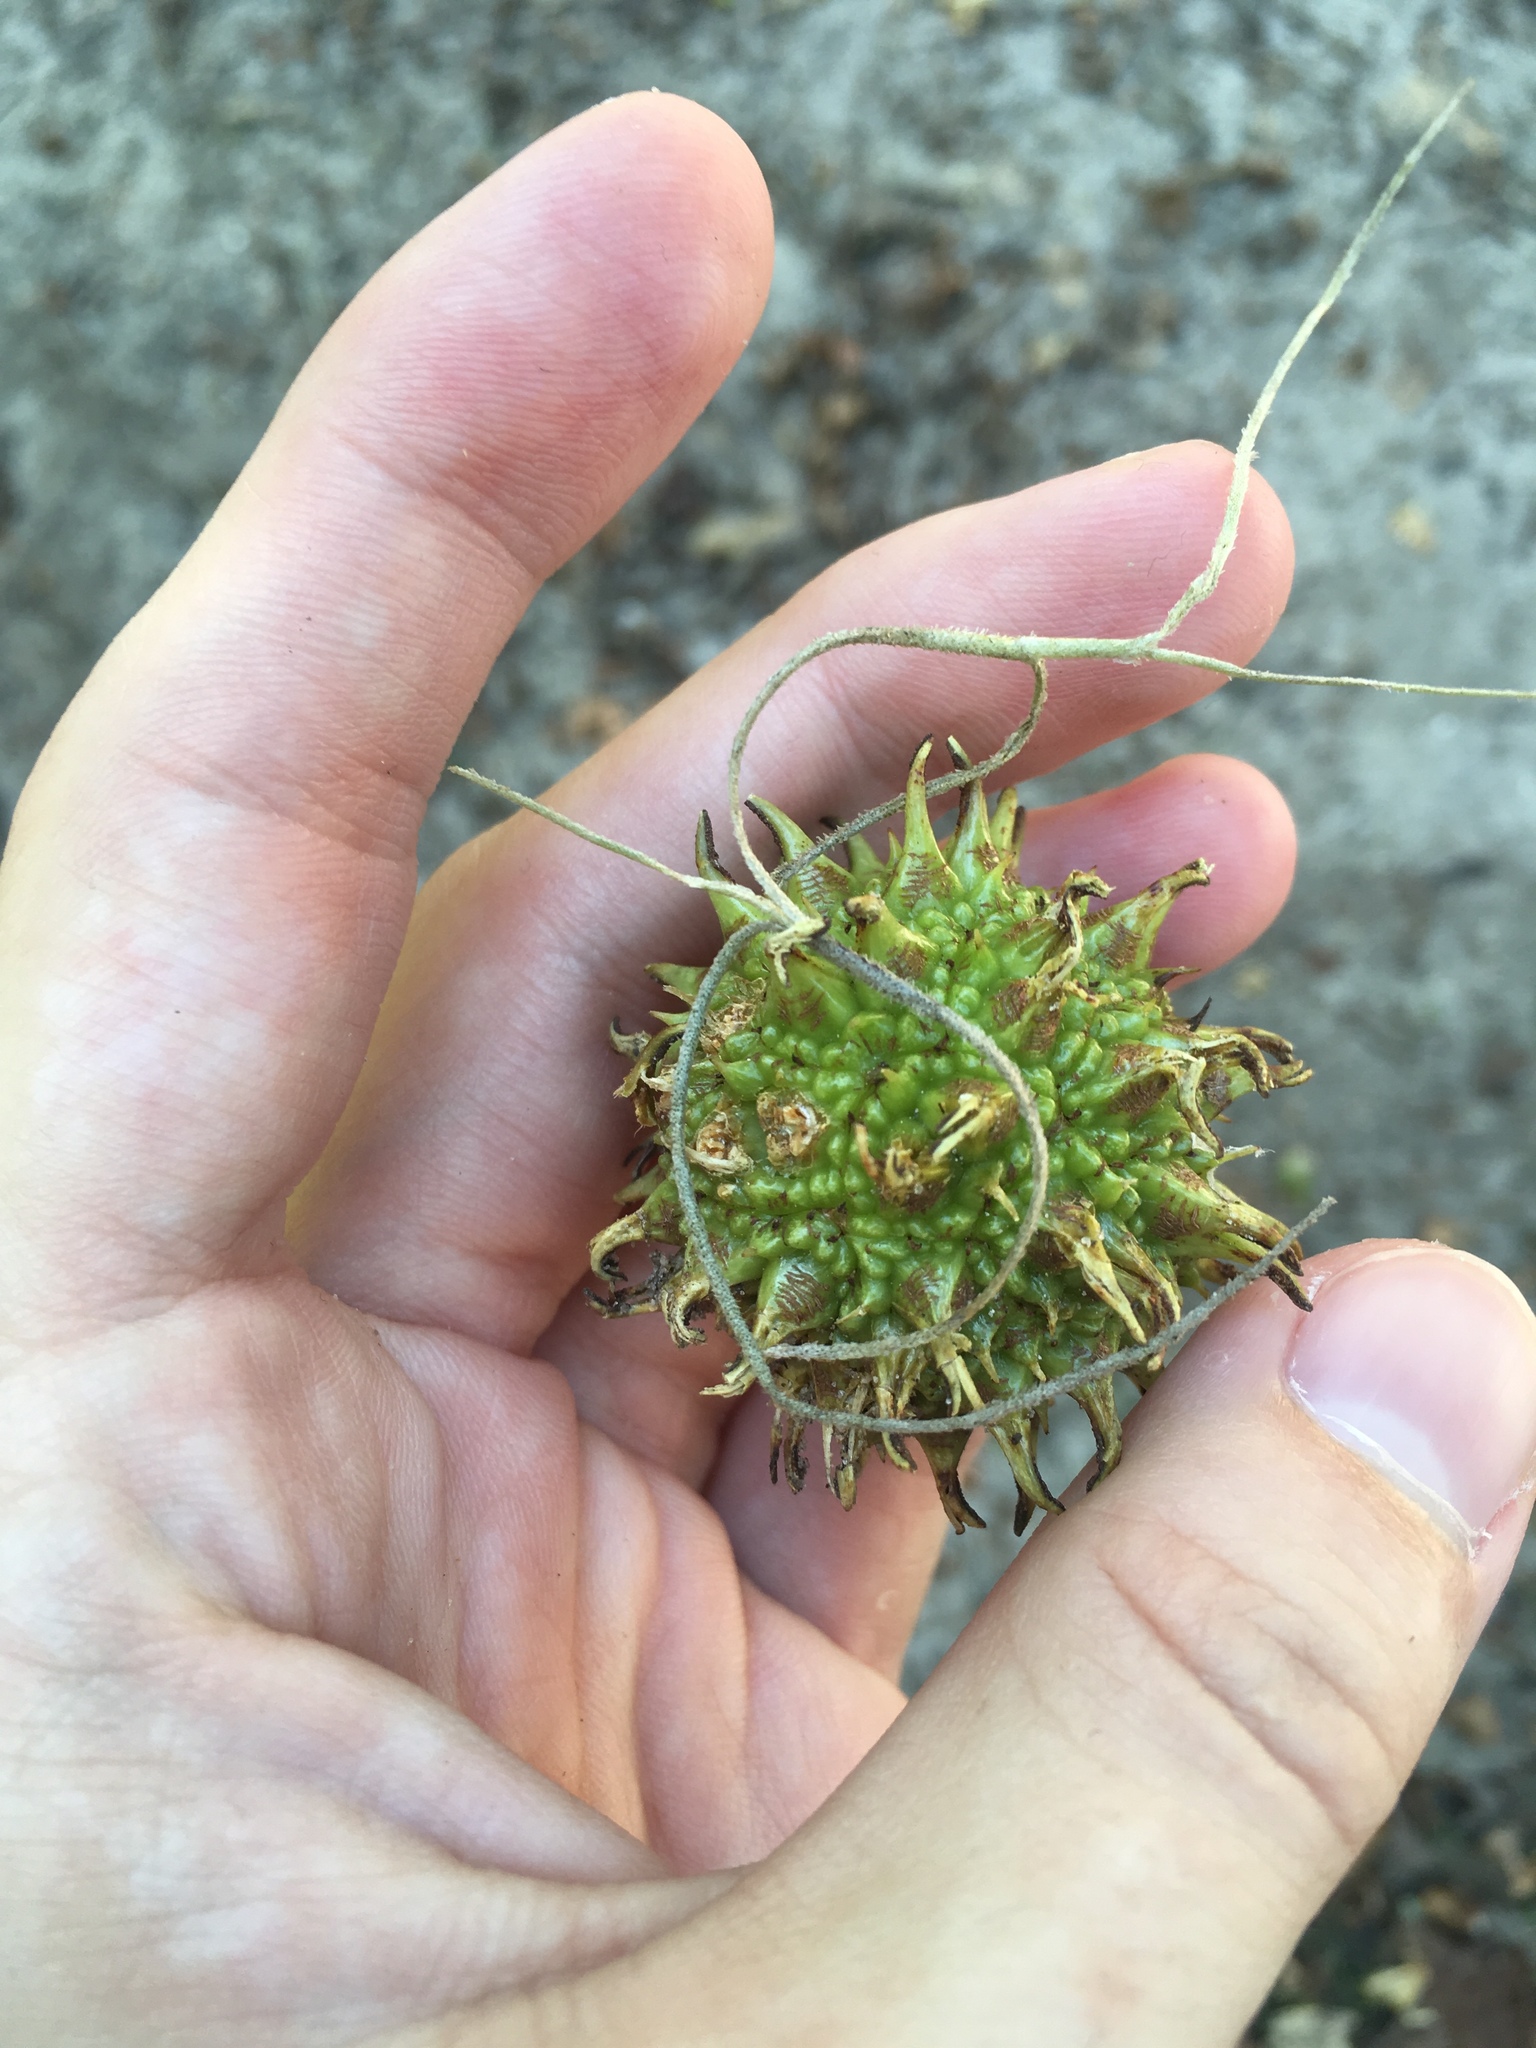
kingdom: Plantae
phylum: Tracheophyta
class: Magnoliopsida
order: Saxifragales
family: Altingiaceae
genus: Liquidambar
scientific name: Liquidambar styraciflua
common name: Sweet gum
